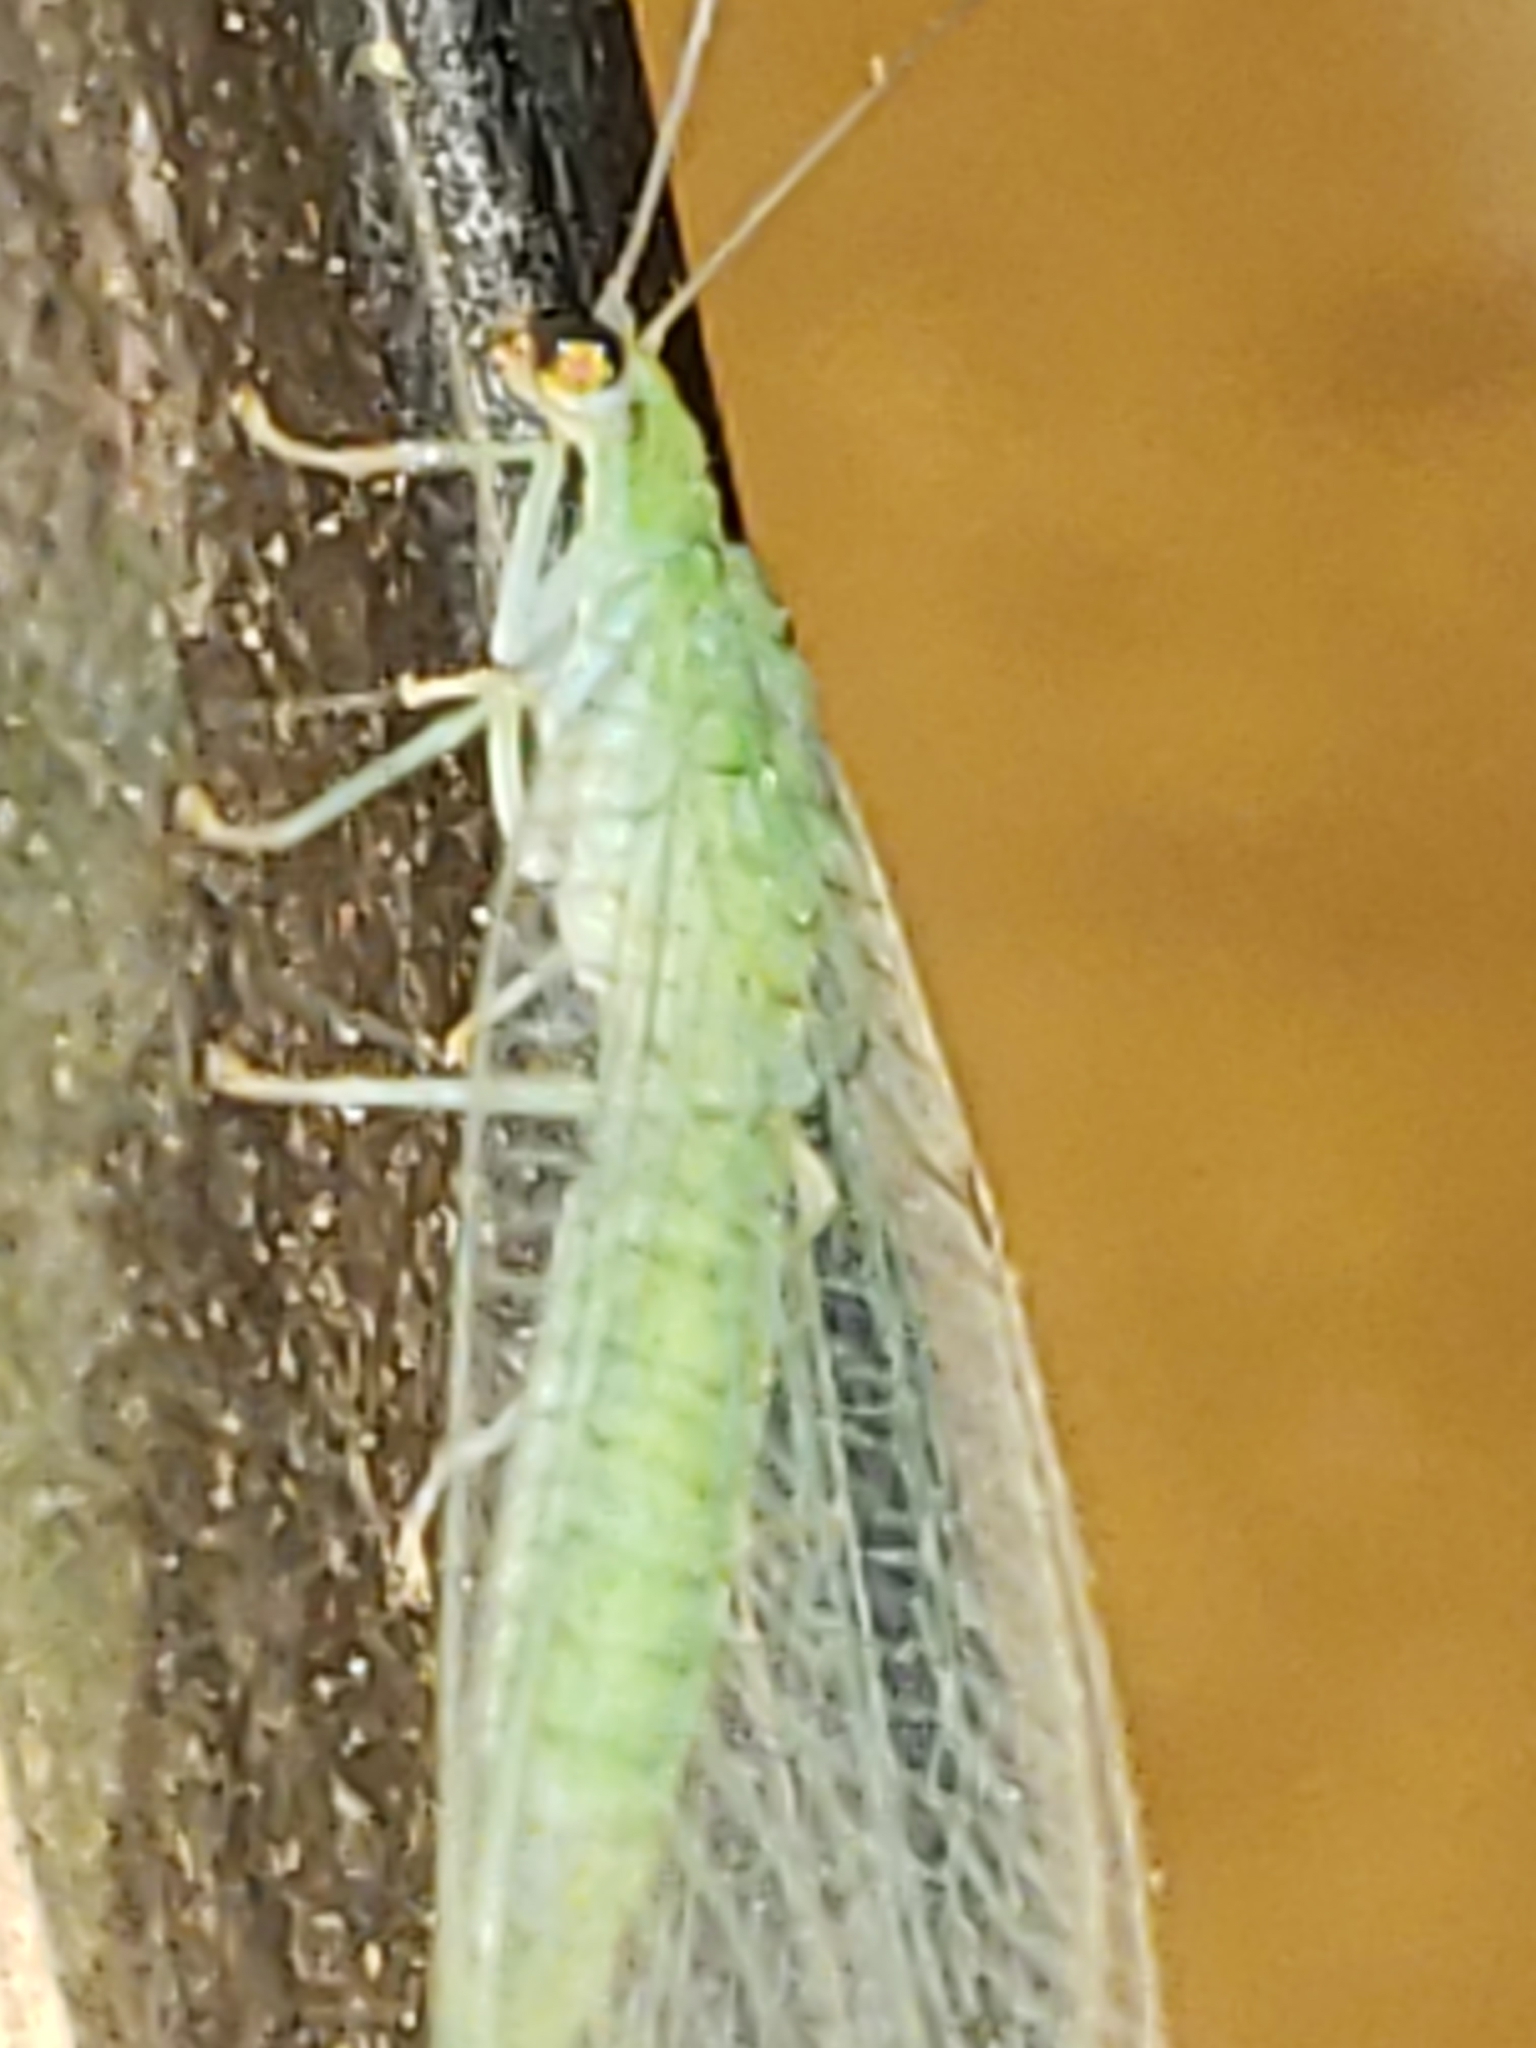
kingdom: Animalia
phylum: Arthropoda
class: Insecta
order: Neuroptera
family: Chrysopidae
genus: Chrysoperla
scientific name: Chrysoperla
